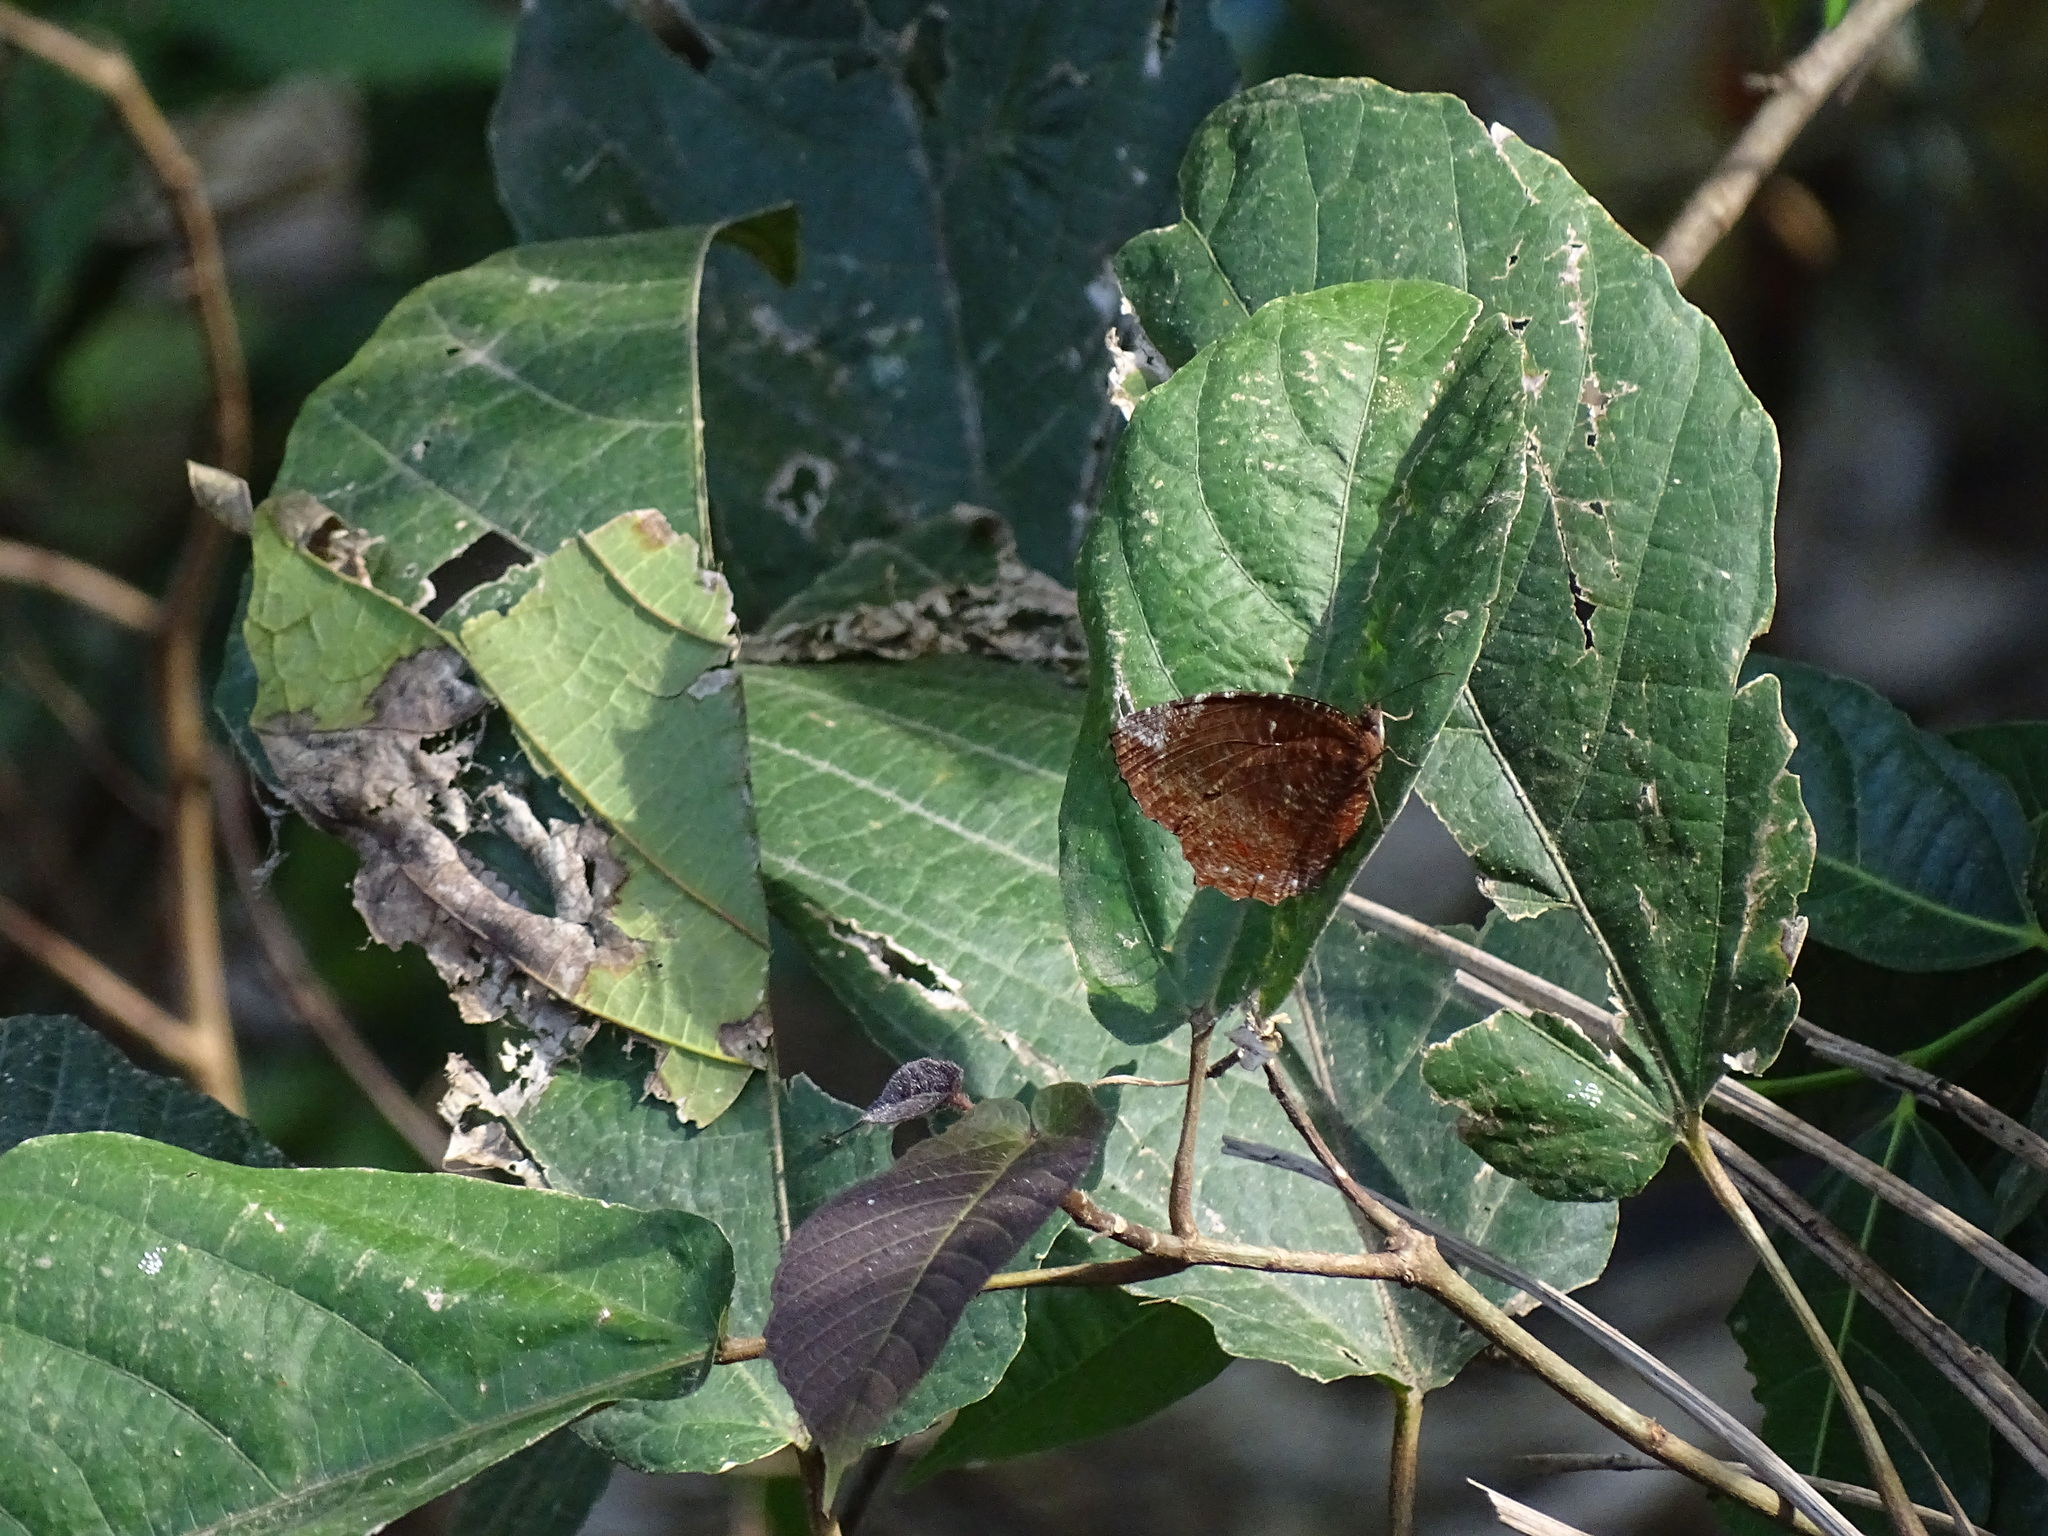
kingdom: Animalia
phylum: Arthropoda
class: Insecta
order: Lepidoptera
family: Nymphalidae
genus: Elymnias
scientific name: Elymnias hypermnestra
